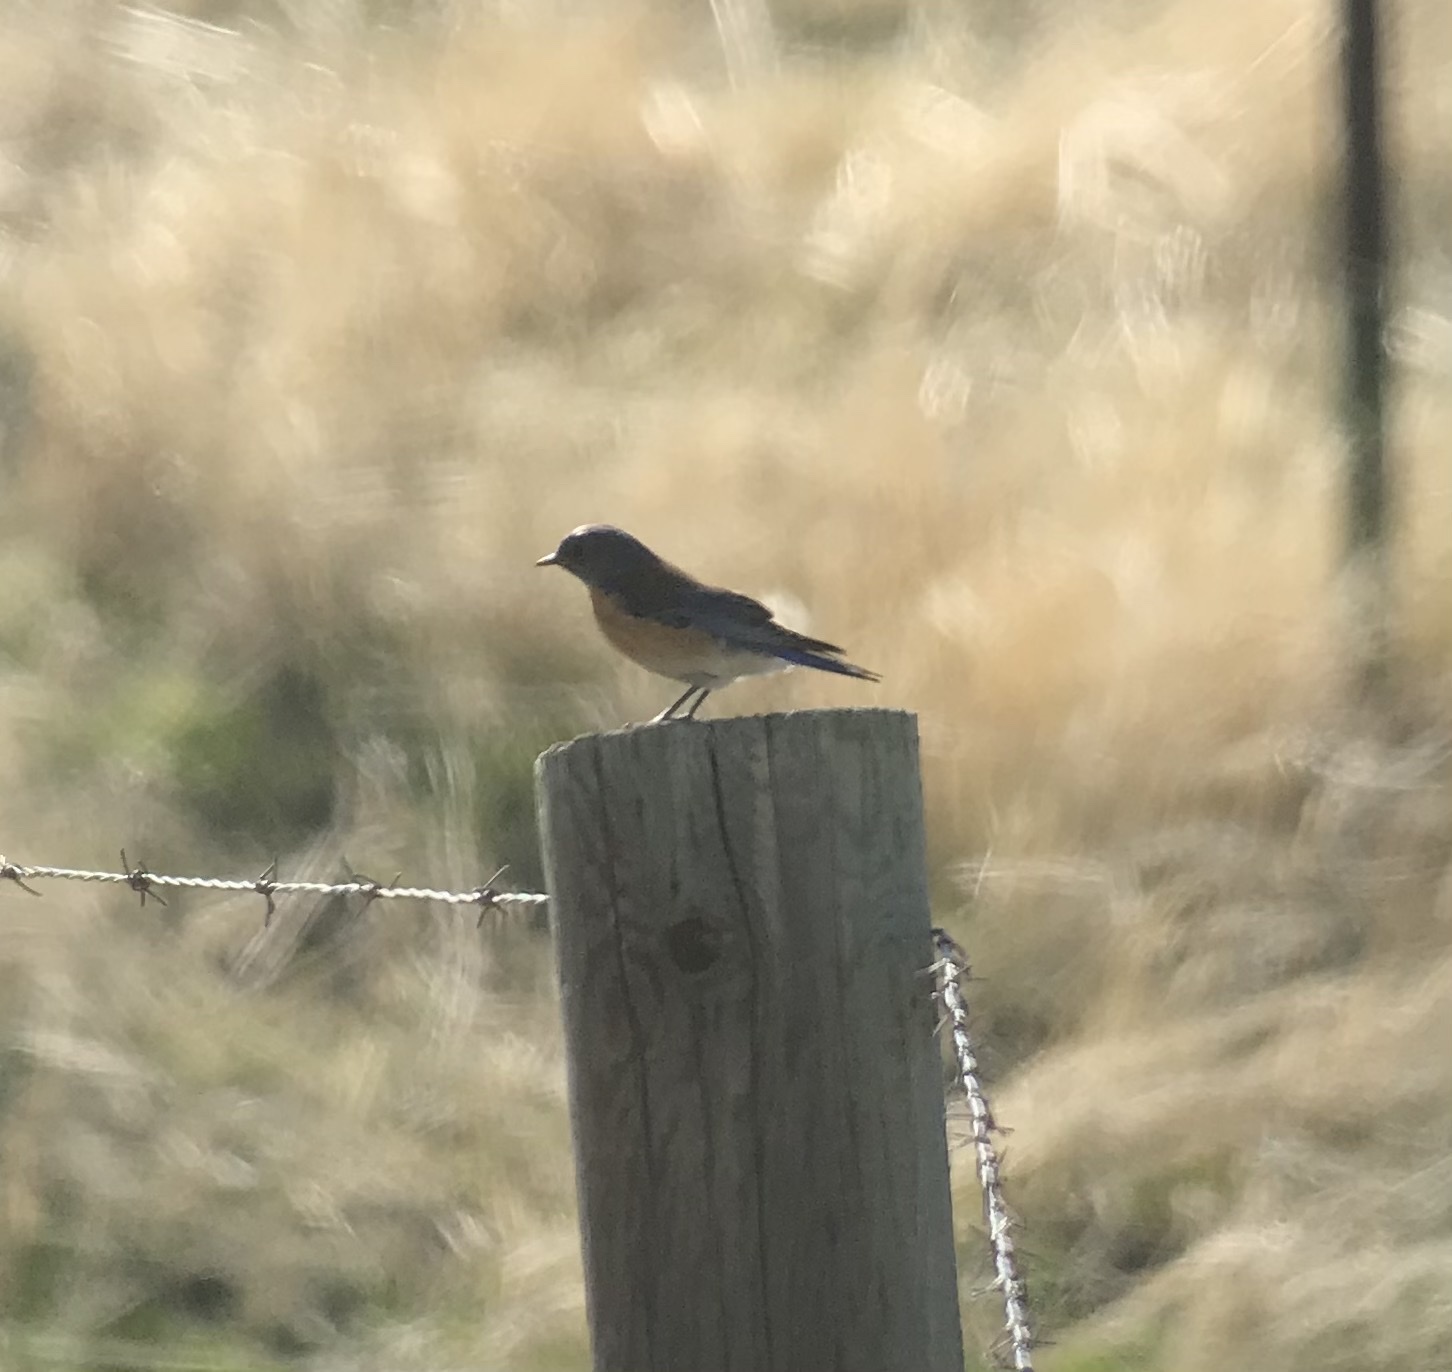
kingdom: Animalia
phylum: Chordata
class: Aves
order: Passeriformes
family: Turdidae
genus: Sialia
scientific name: Sialia mexicana
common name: Western bluebird
